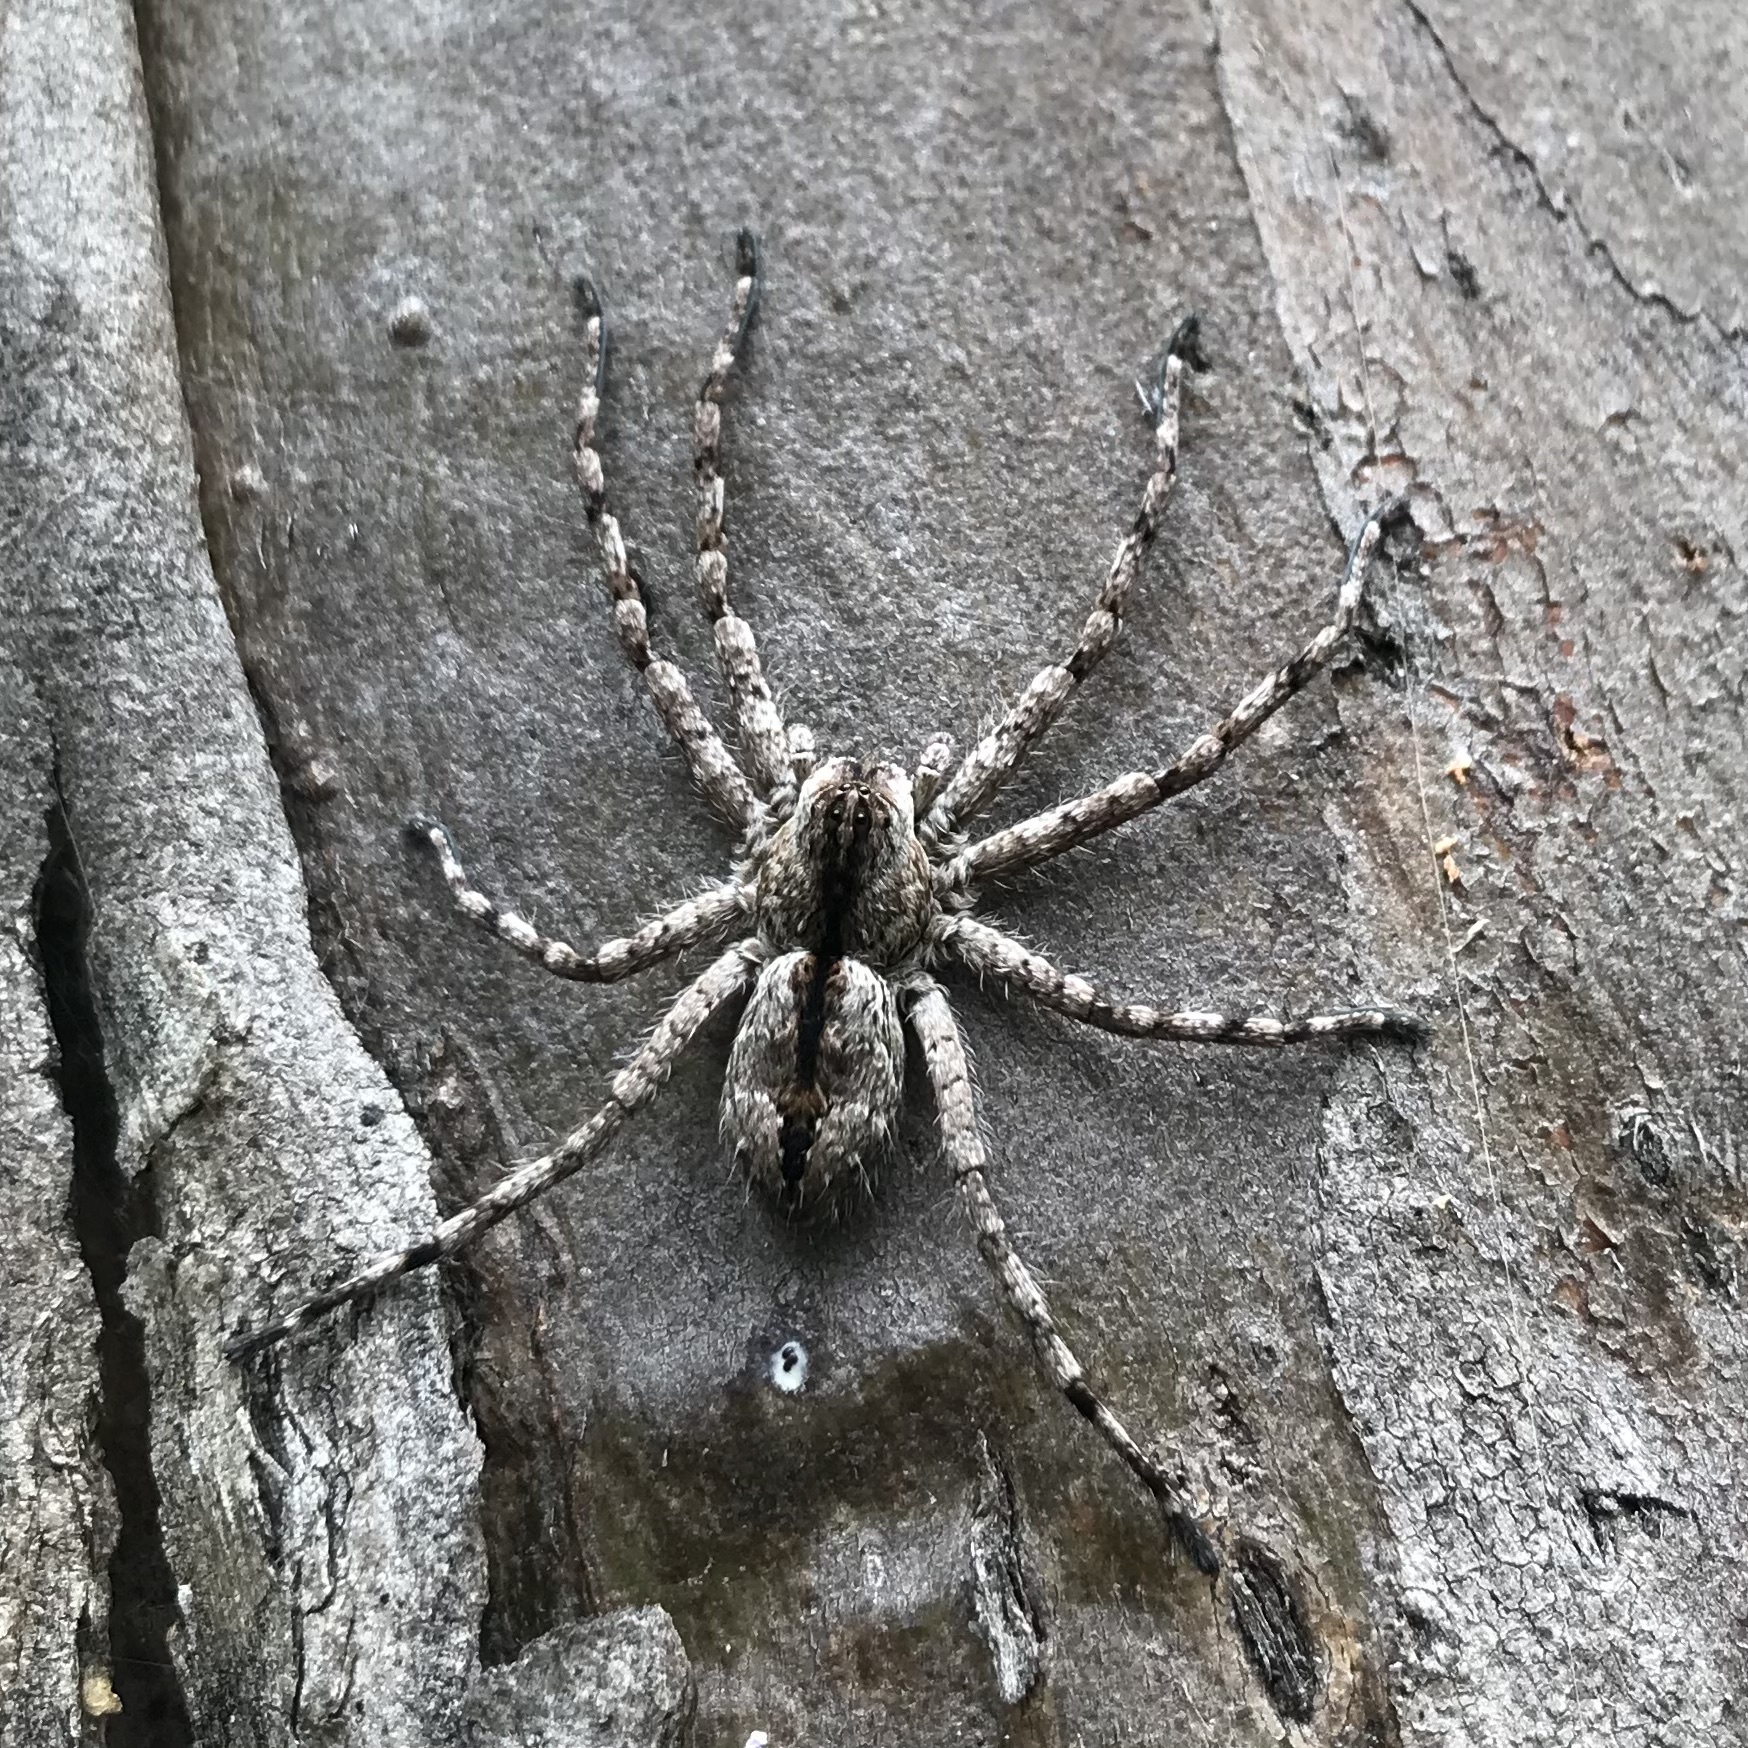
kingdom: Animalia
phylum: Arthropoda
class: Arachnida
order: Araneae
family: Sparassidae
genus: Pediana
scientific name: Pediana regina
